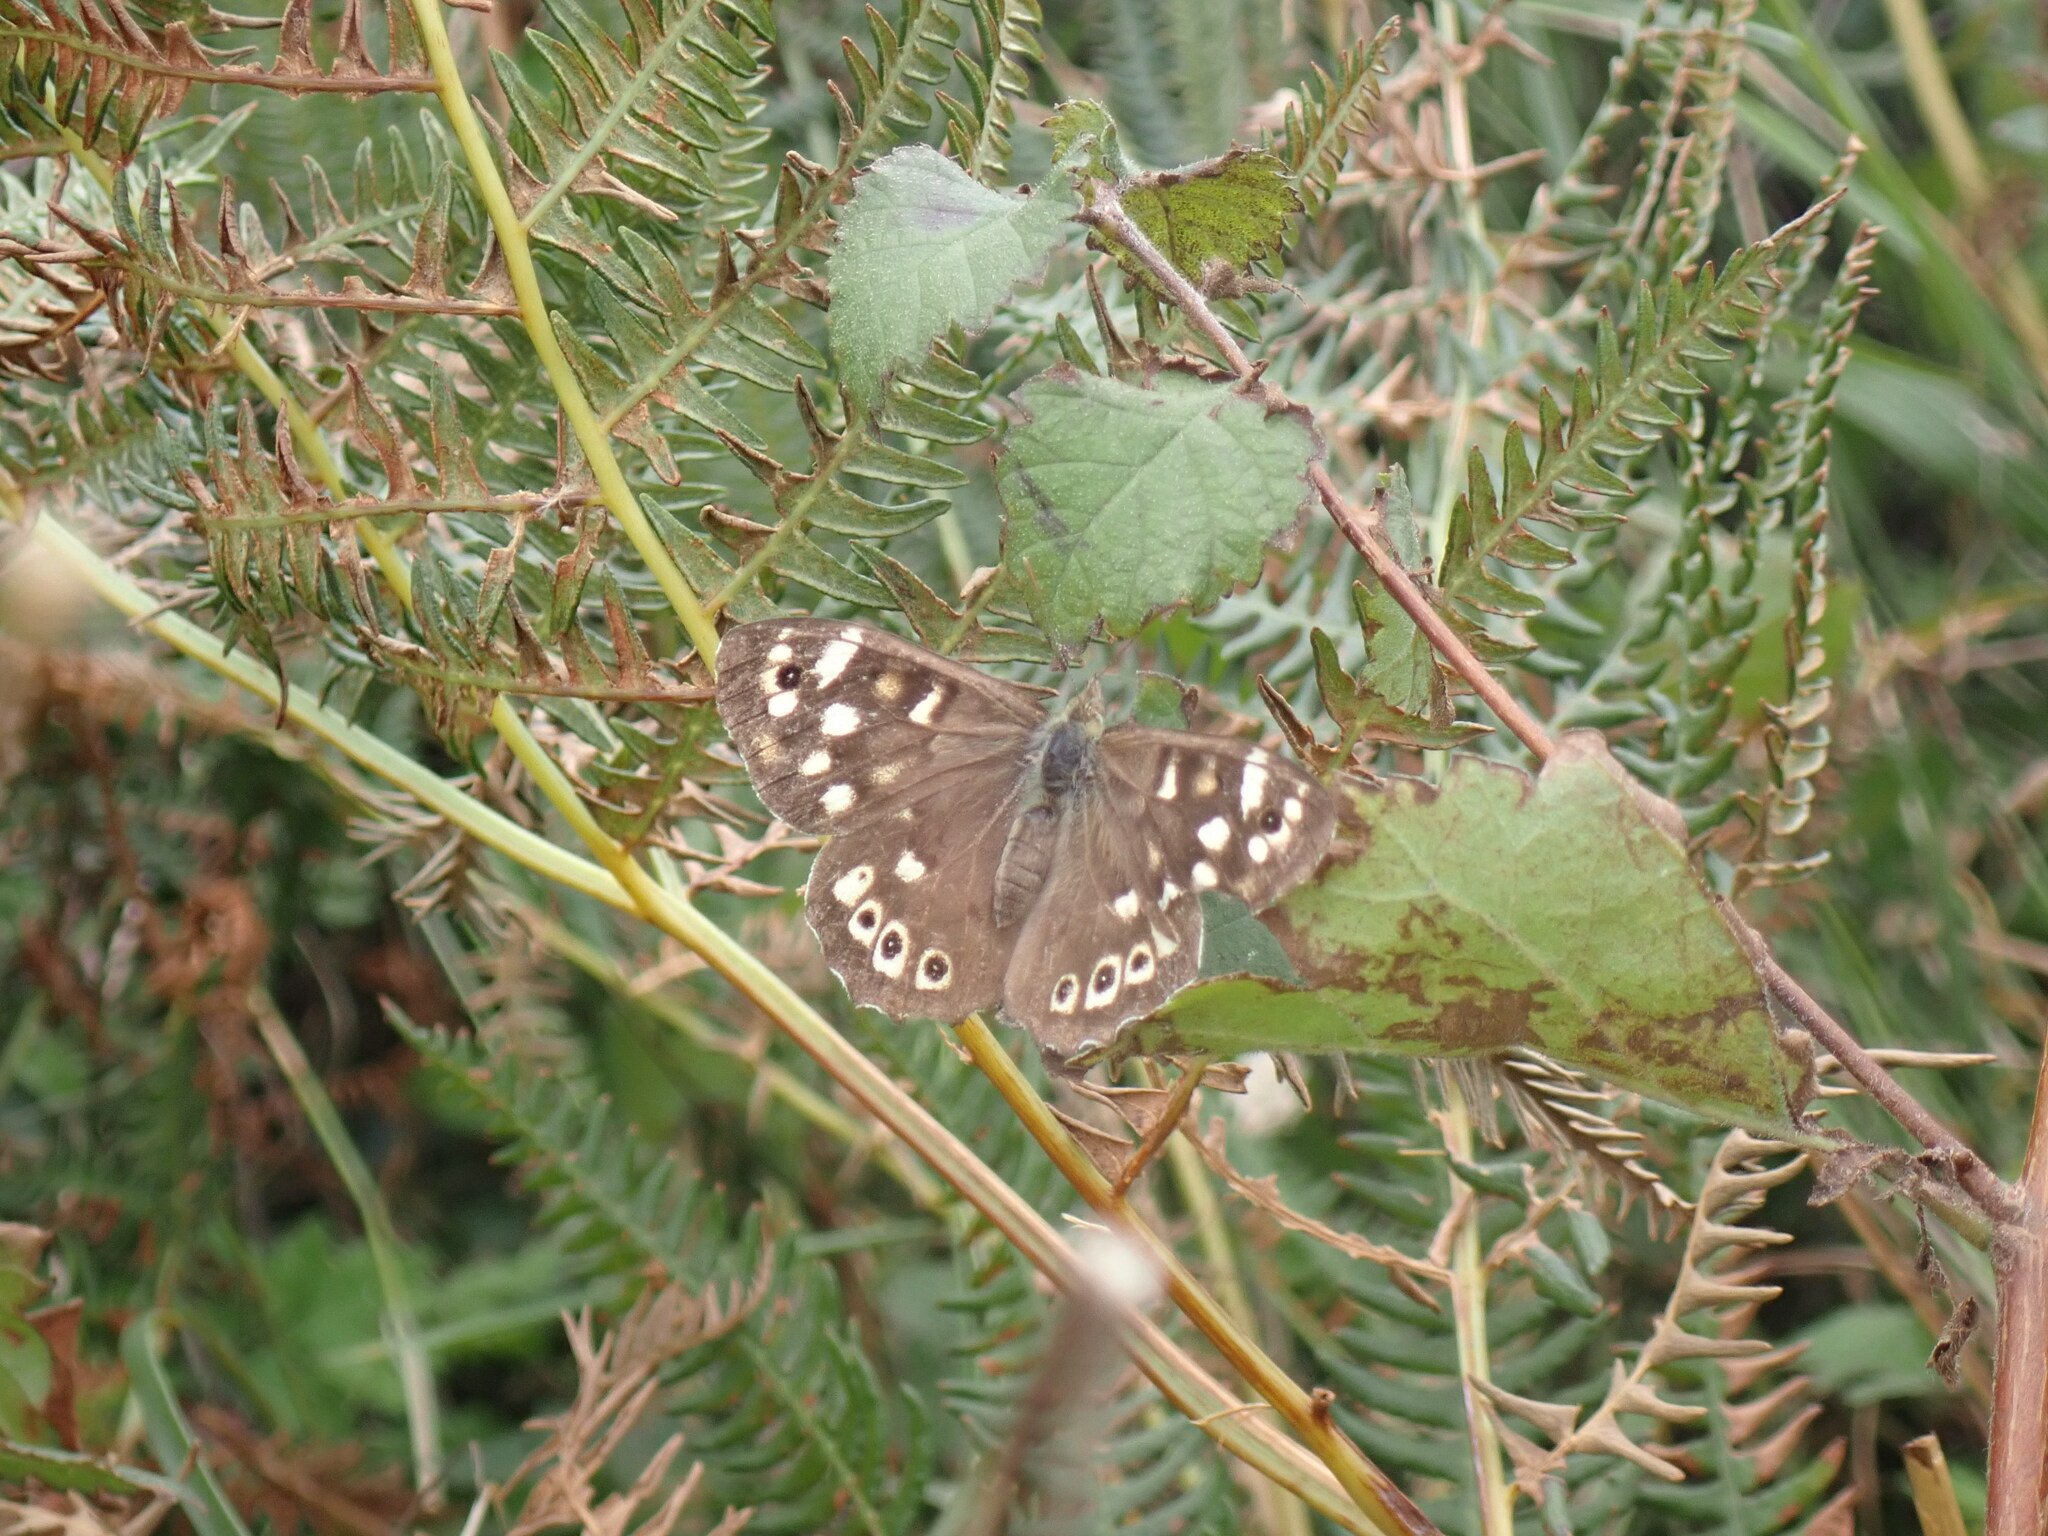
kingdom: Animalia
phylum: Arthropoda
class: Insecta
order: Lepidoptera
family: Nymphalidae
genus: Pararge
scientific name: Pararge aegeria
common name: Speckled wood
